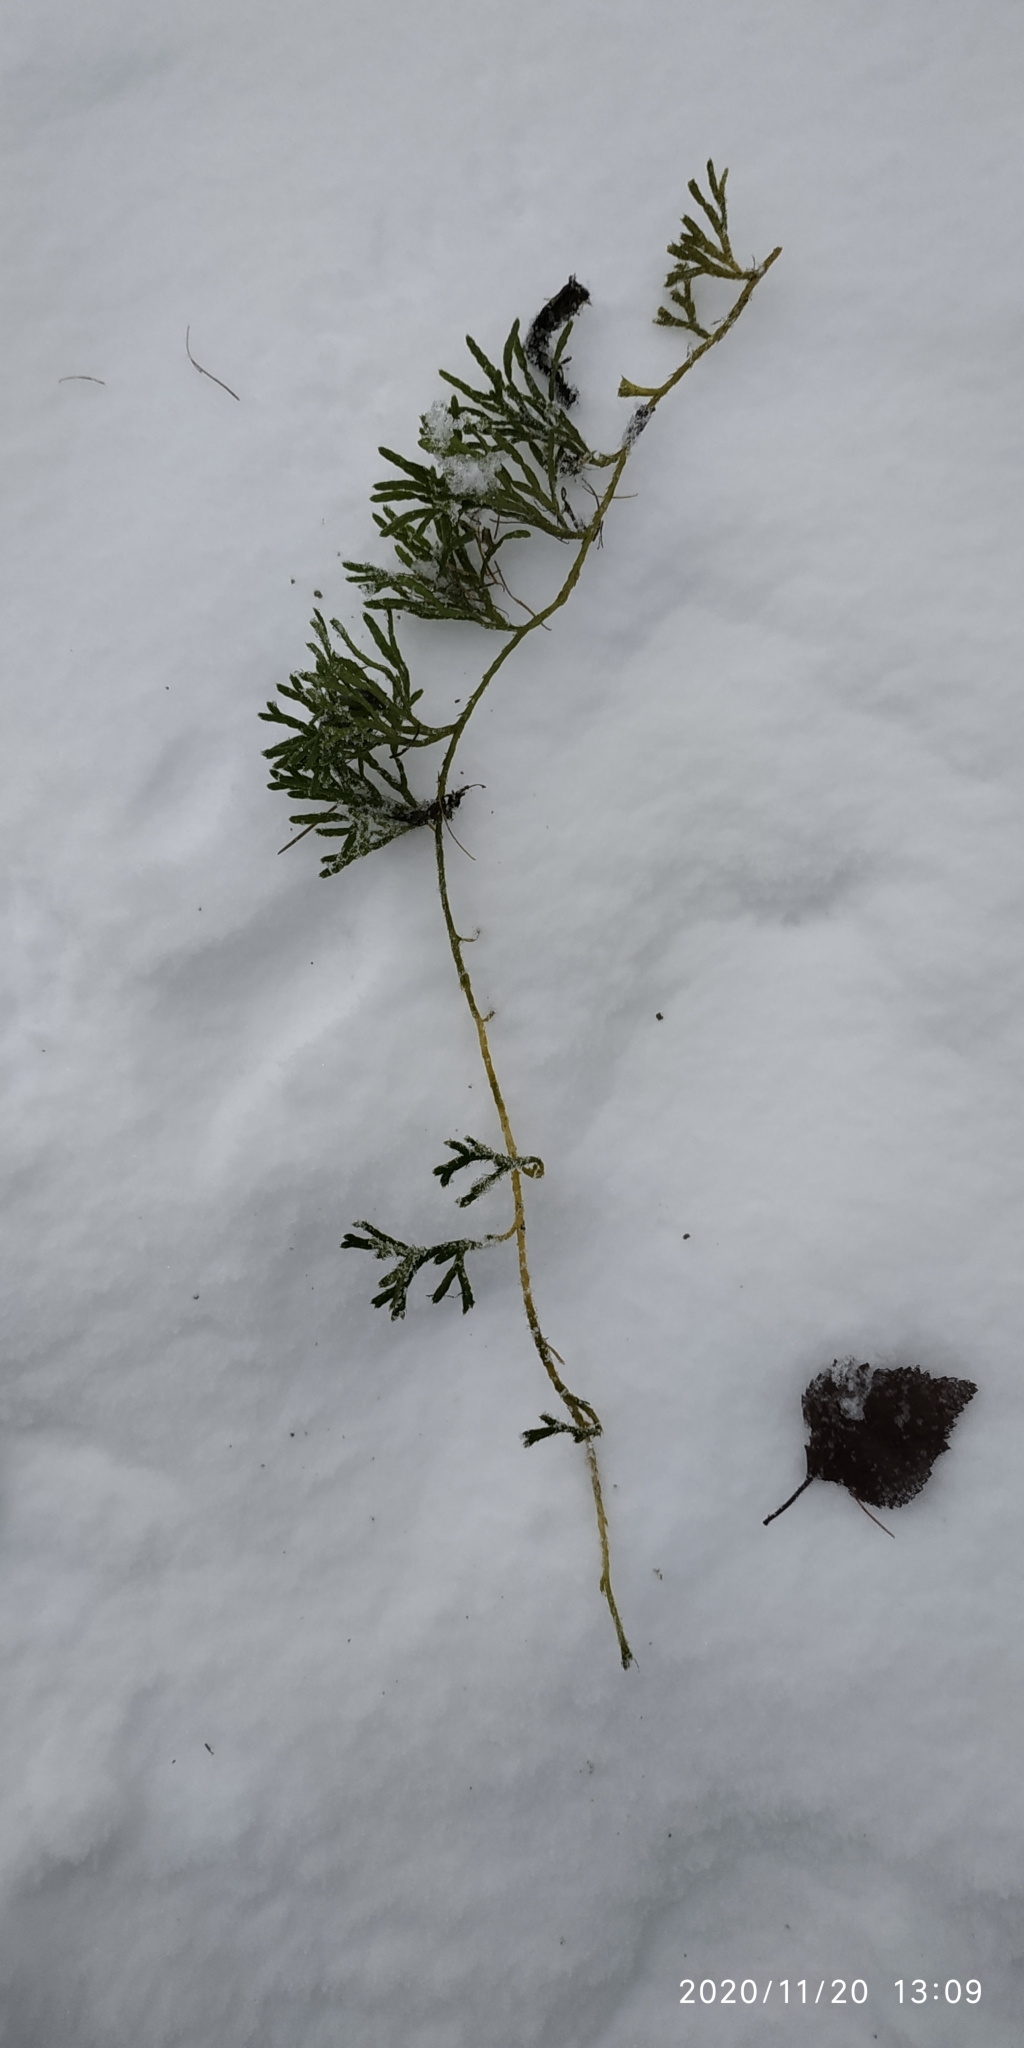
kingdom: Plantae
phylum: Tracheophyta
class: Lycopodiopsida
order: Lycopodiales
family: Lycopodiaceae
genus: Diphasiastrum
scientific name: Diphasiastrum complanatum
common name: Northern running-pine
